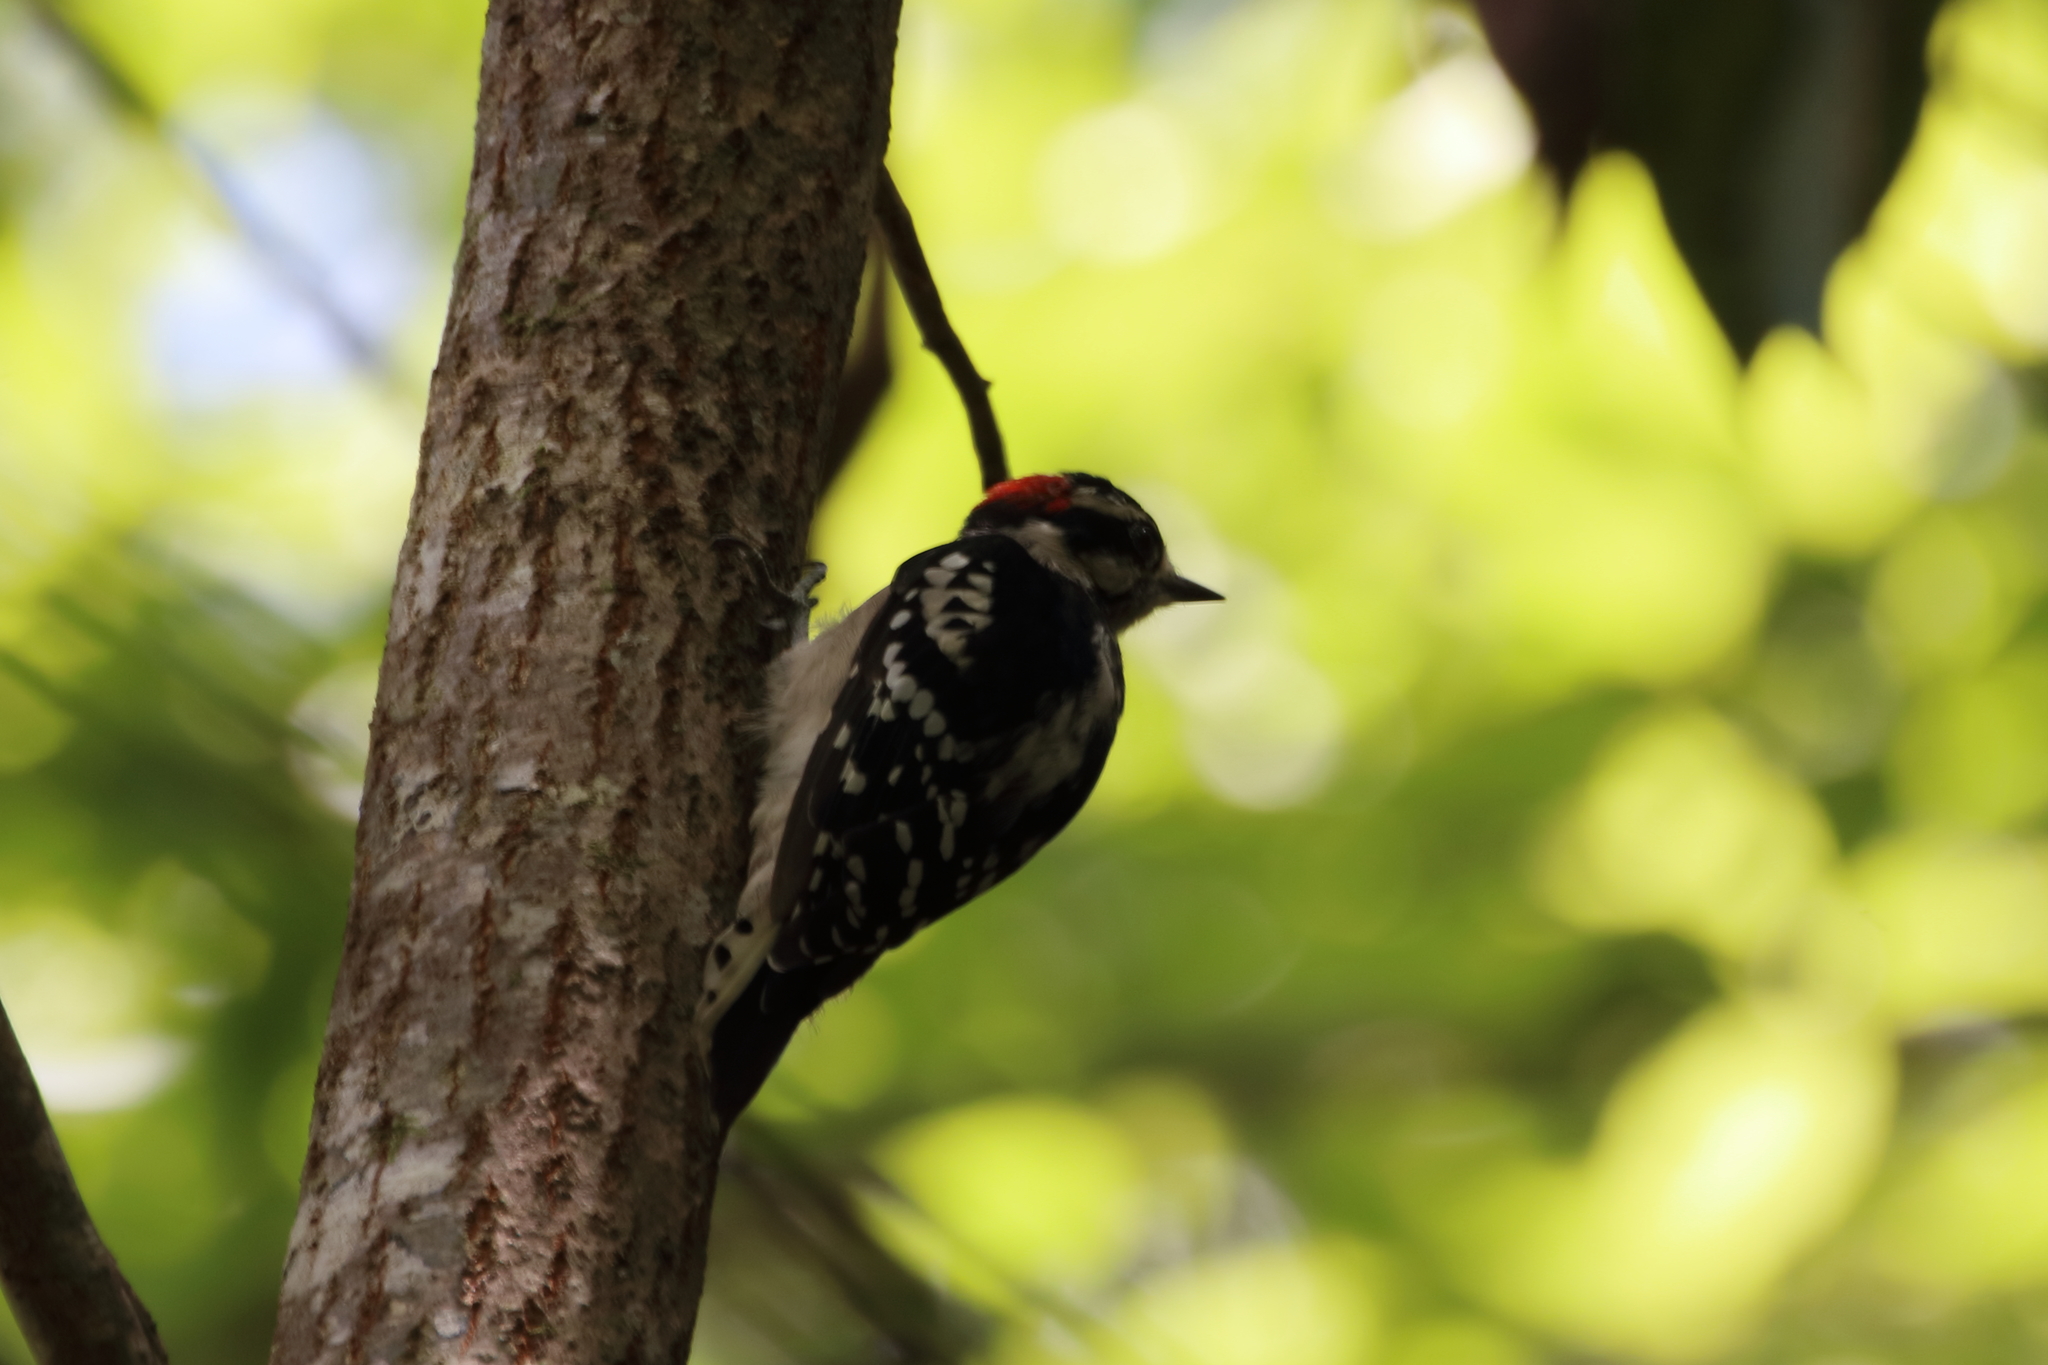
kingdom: Animalia
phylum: Chordata
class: Aves
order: Piciformes
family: Picidae
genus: Dryobates
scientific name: Dryobates pubescens
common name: Downy woodpecker
